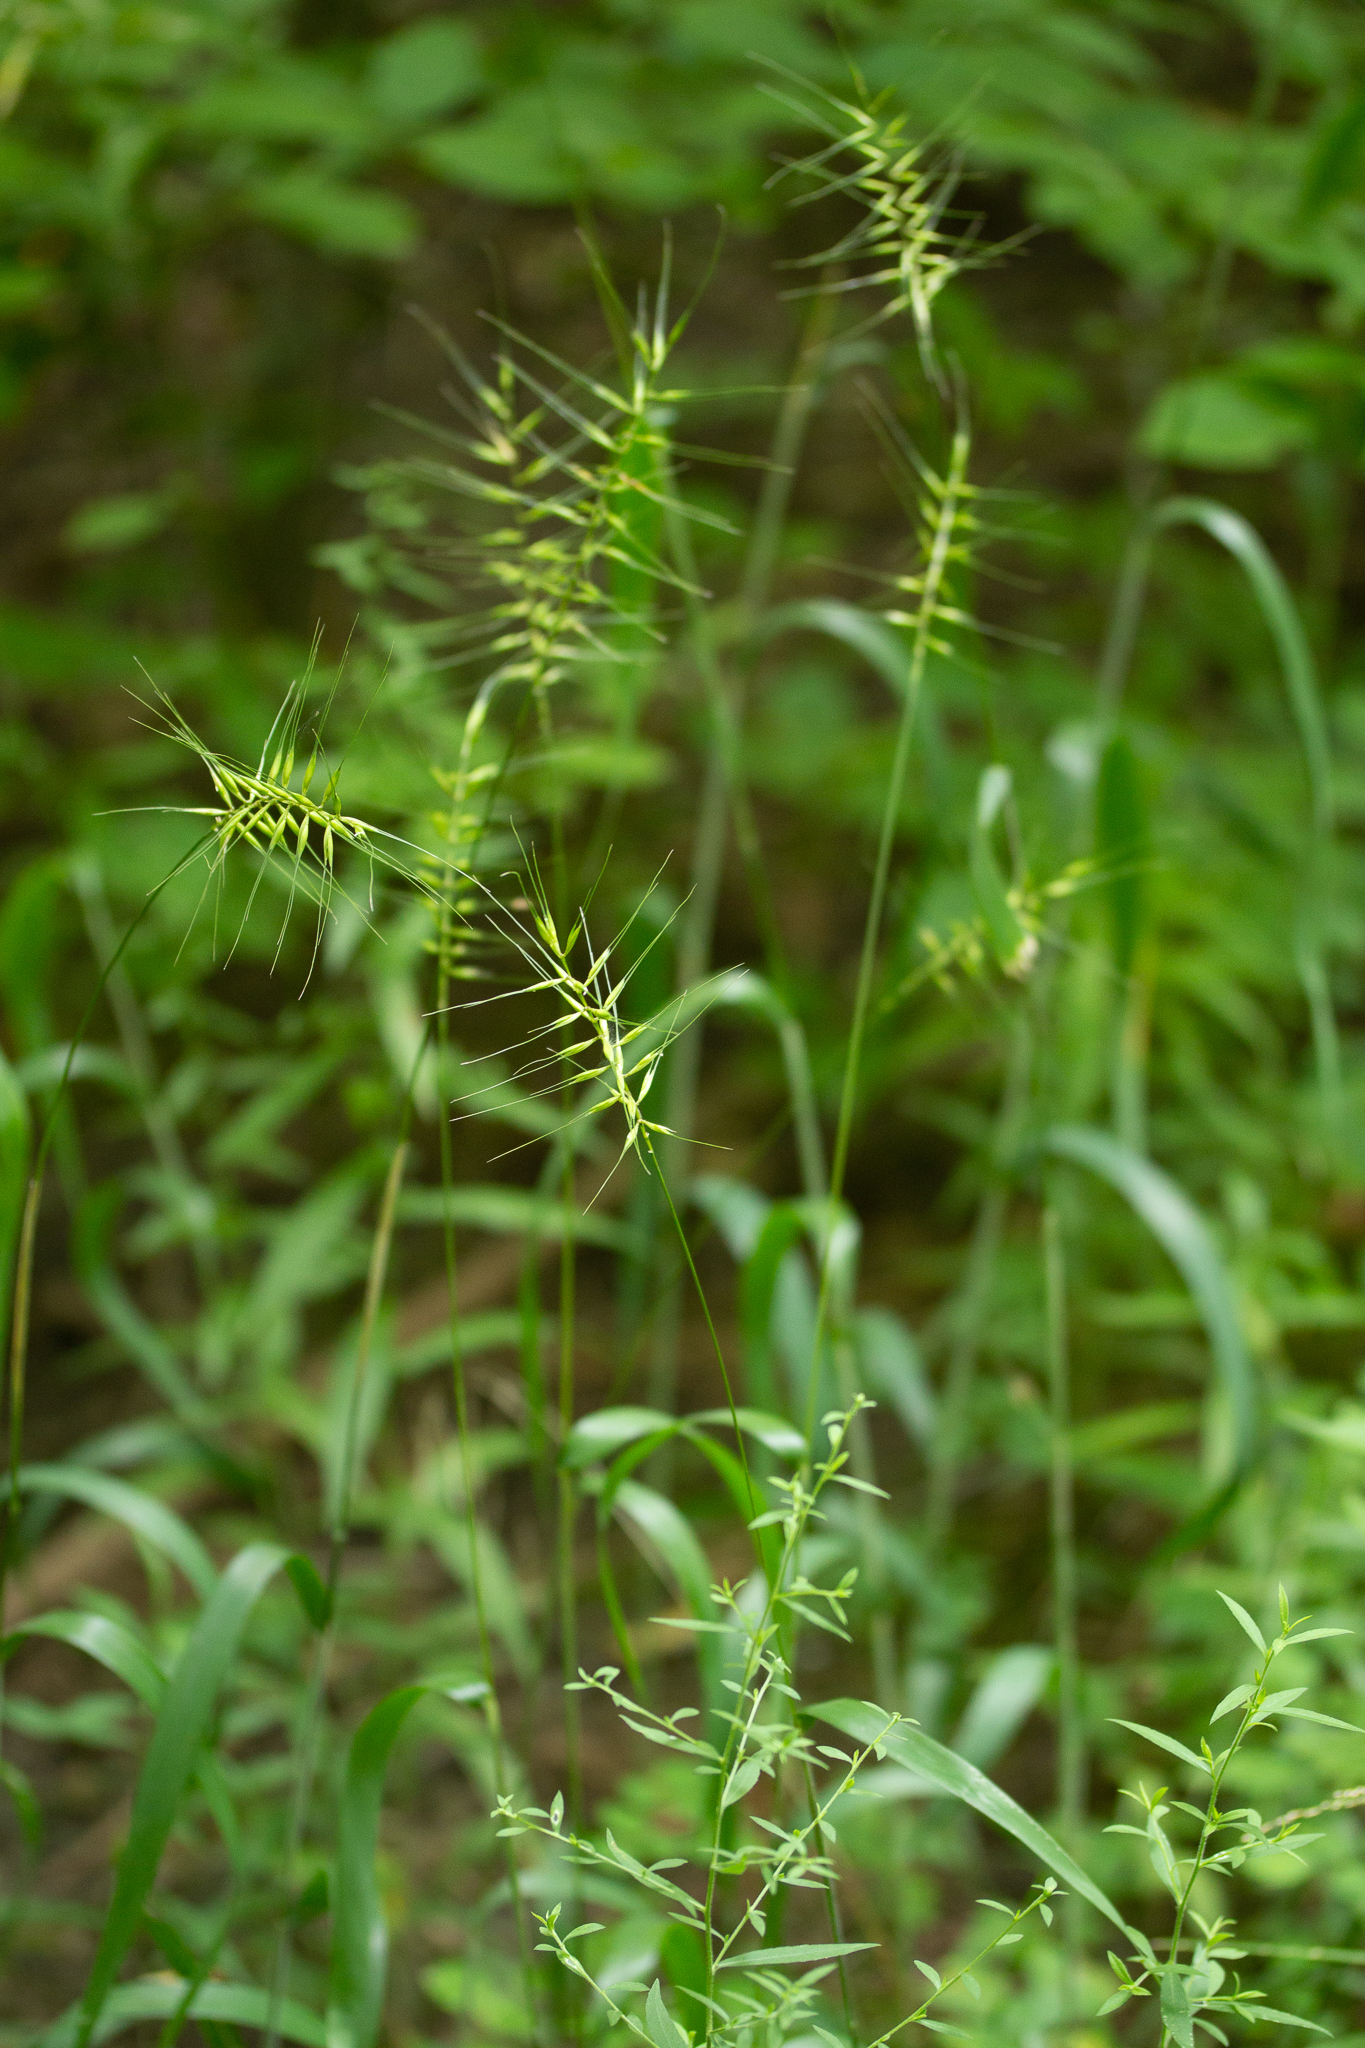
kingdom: Plantae
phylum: Tracheophyta
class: Liliopsida
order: Poales
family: Poaceae
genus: Elymus
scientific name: Elymus hystrix
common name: Bottlebrush grass
